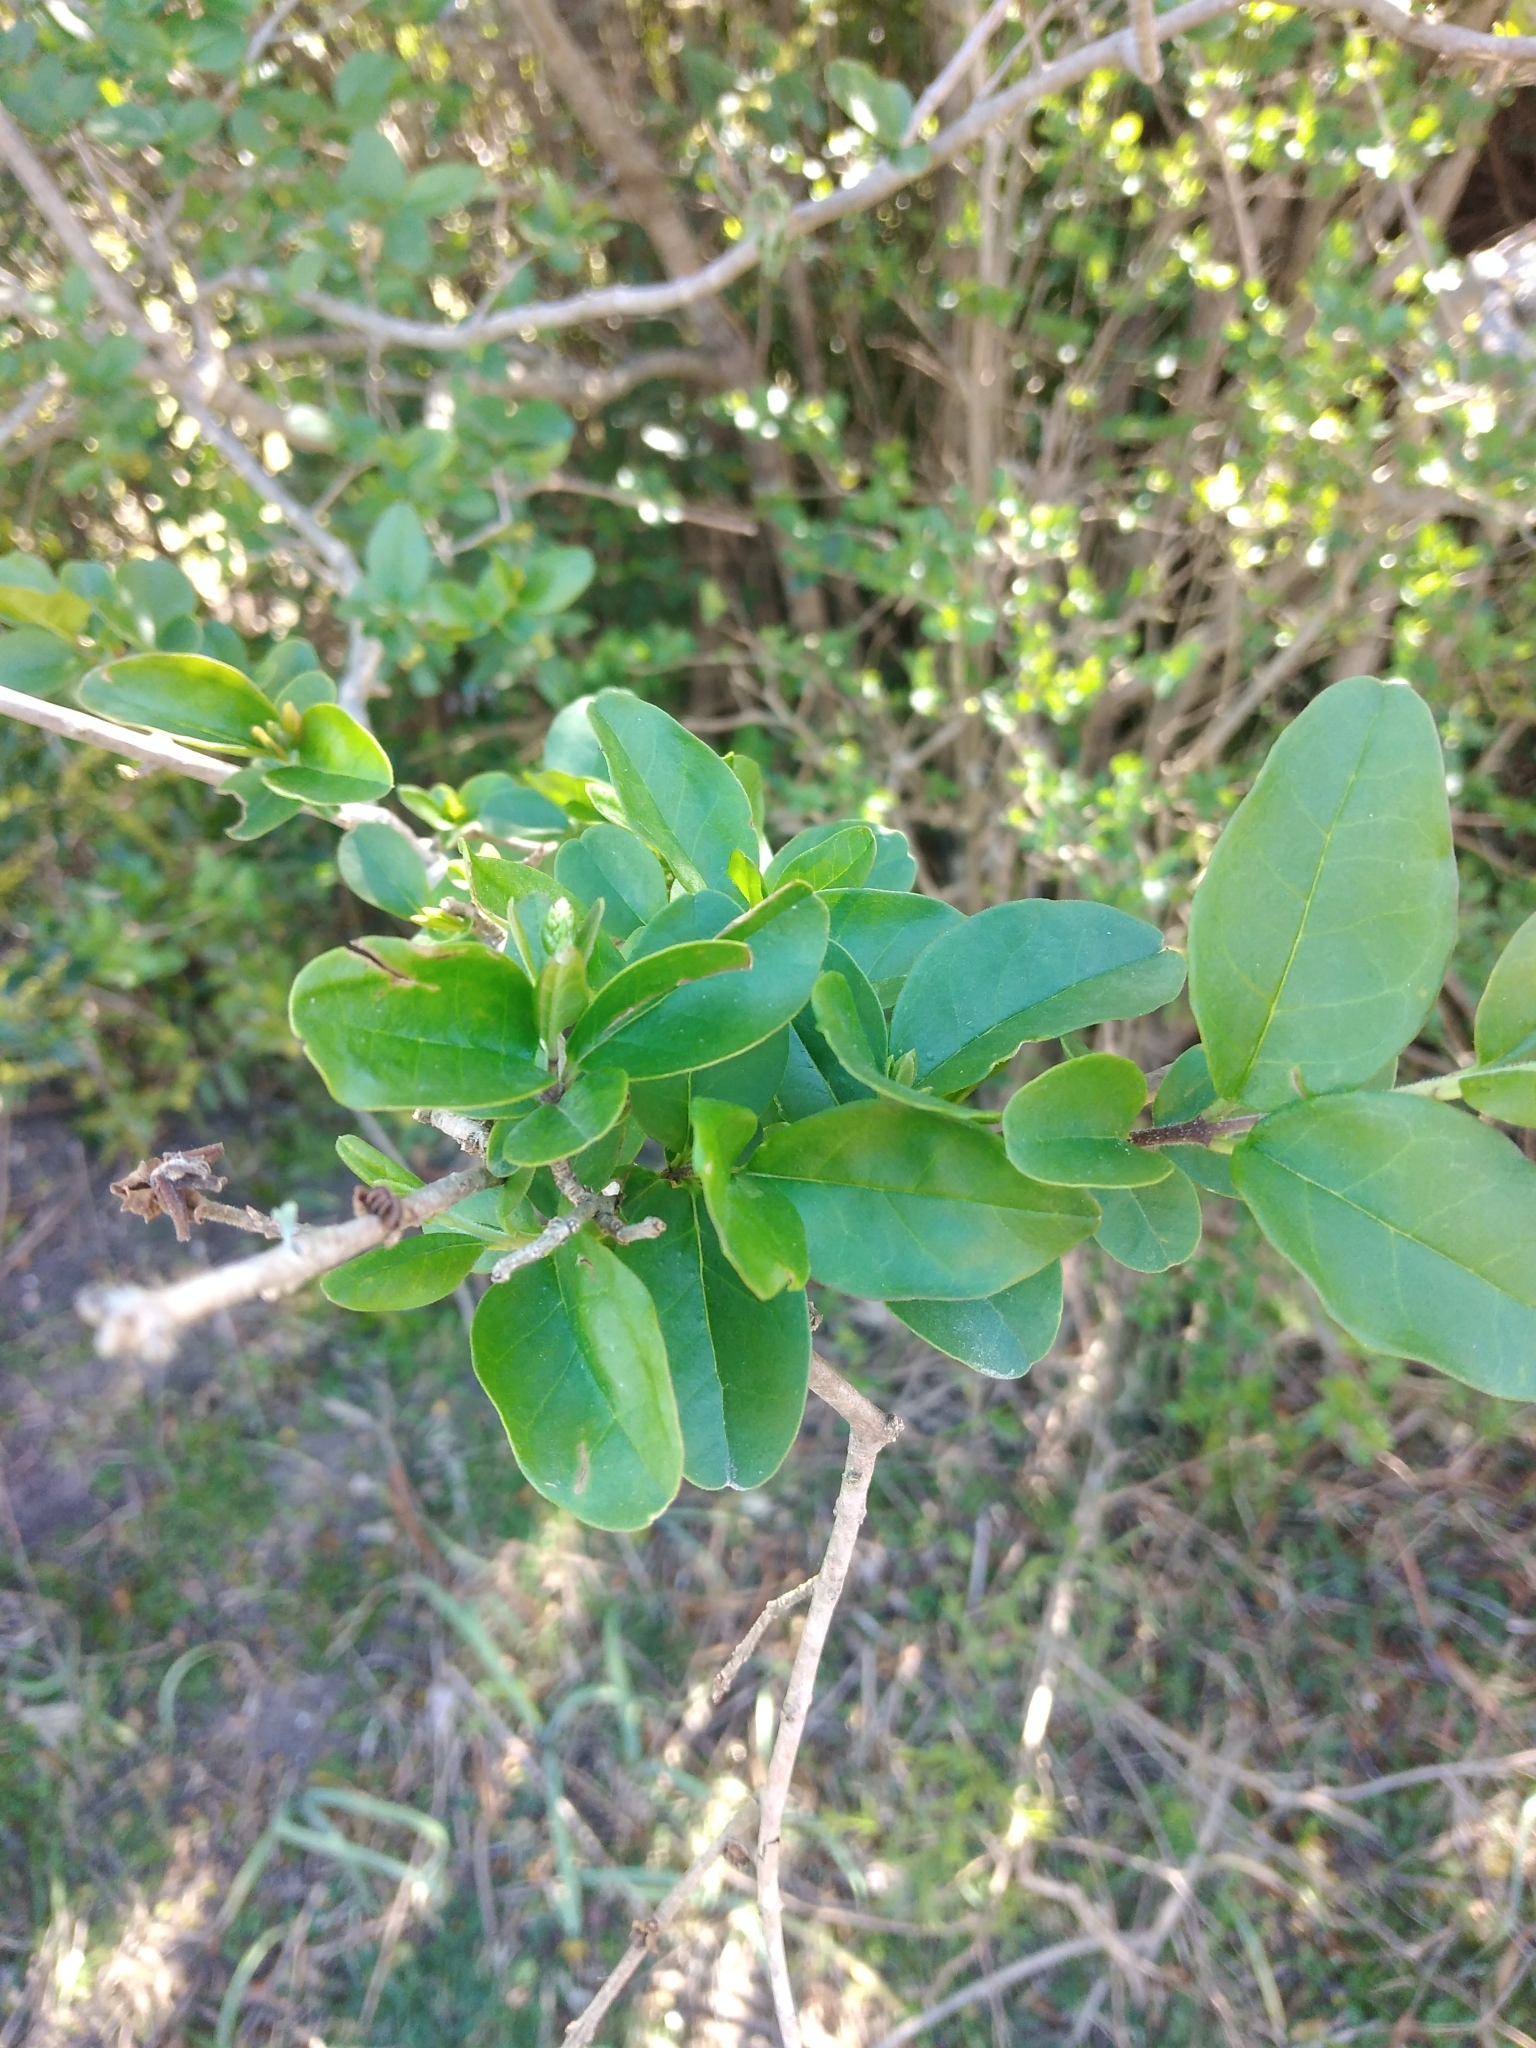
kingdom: Plantae
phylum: Tracheophyta
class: Magnoliopsida
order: Lamiales
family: Oleaceae
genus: Ligustrum
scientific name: Ligustrum sinense
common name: Chinese privet
